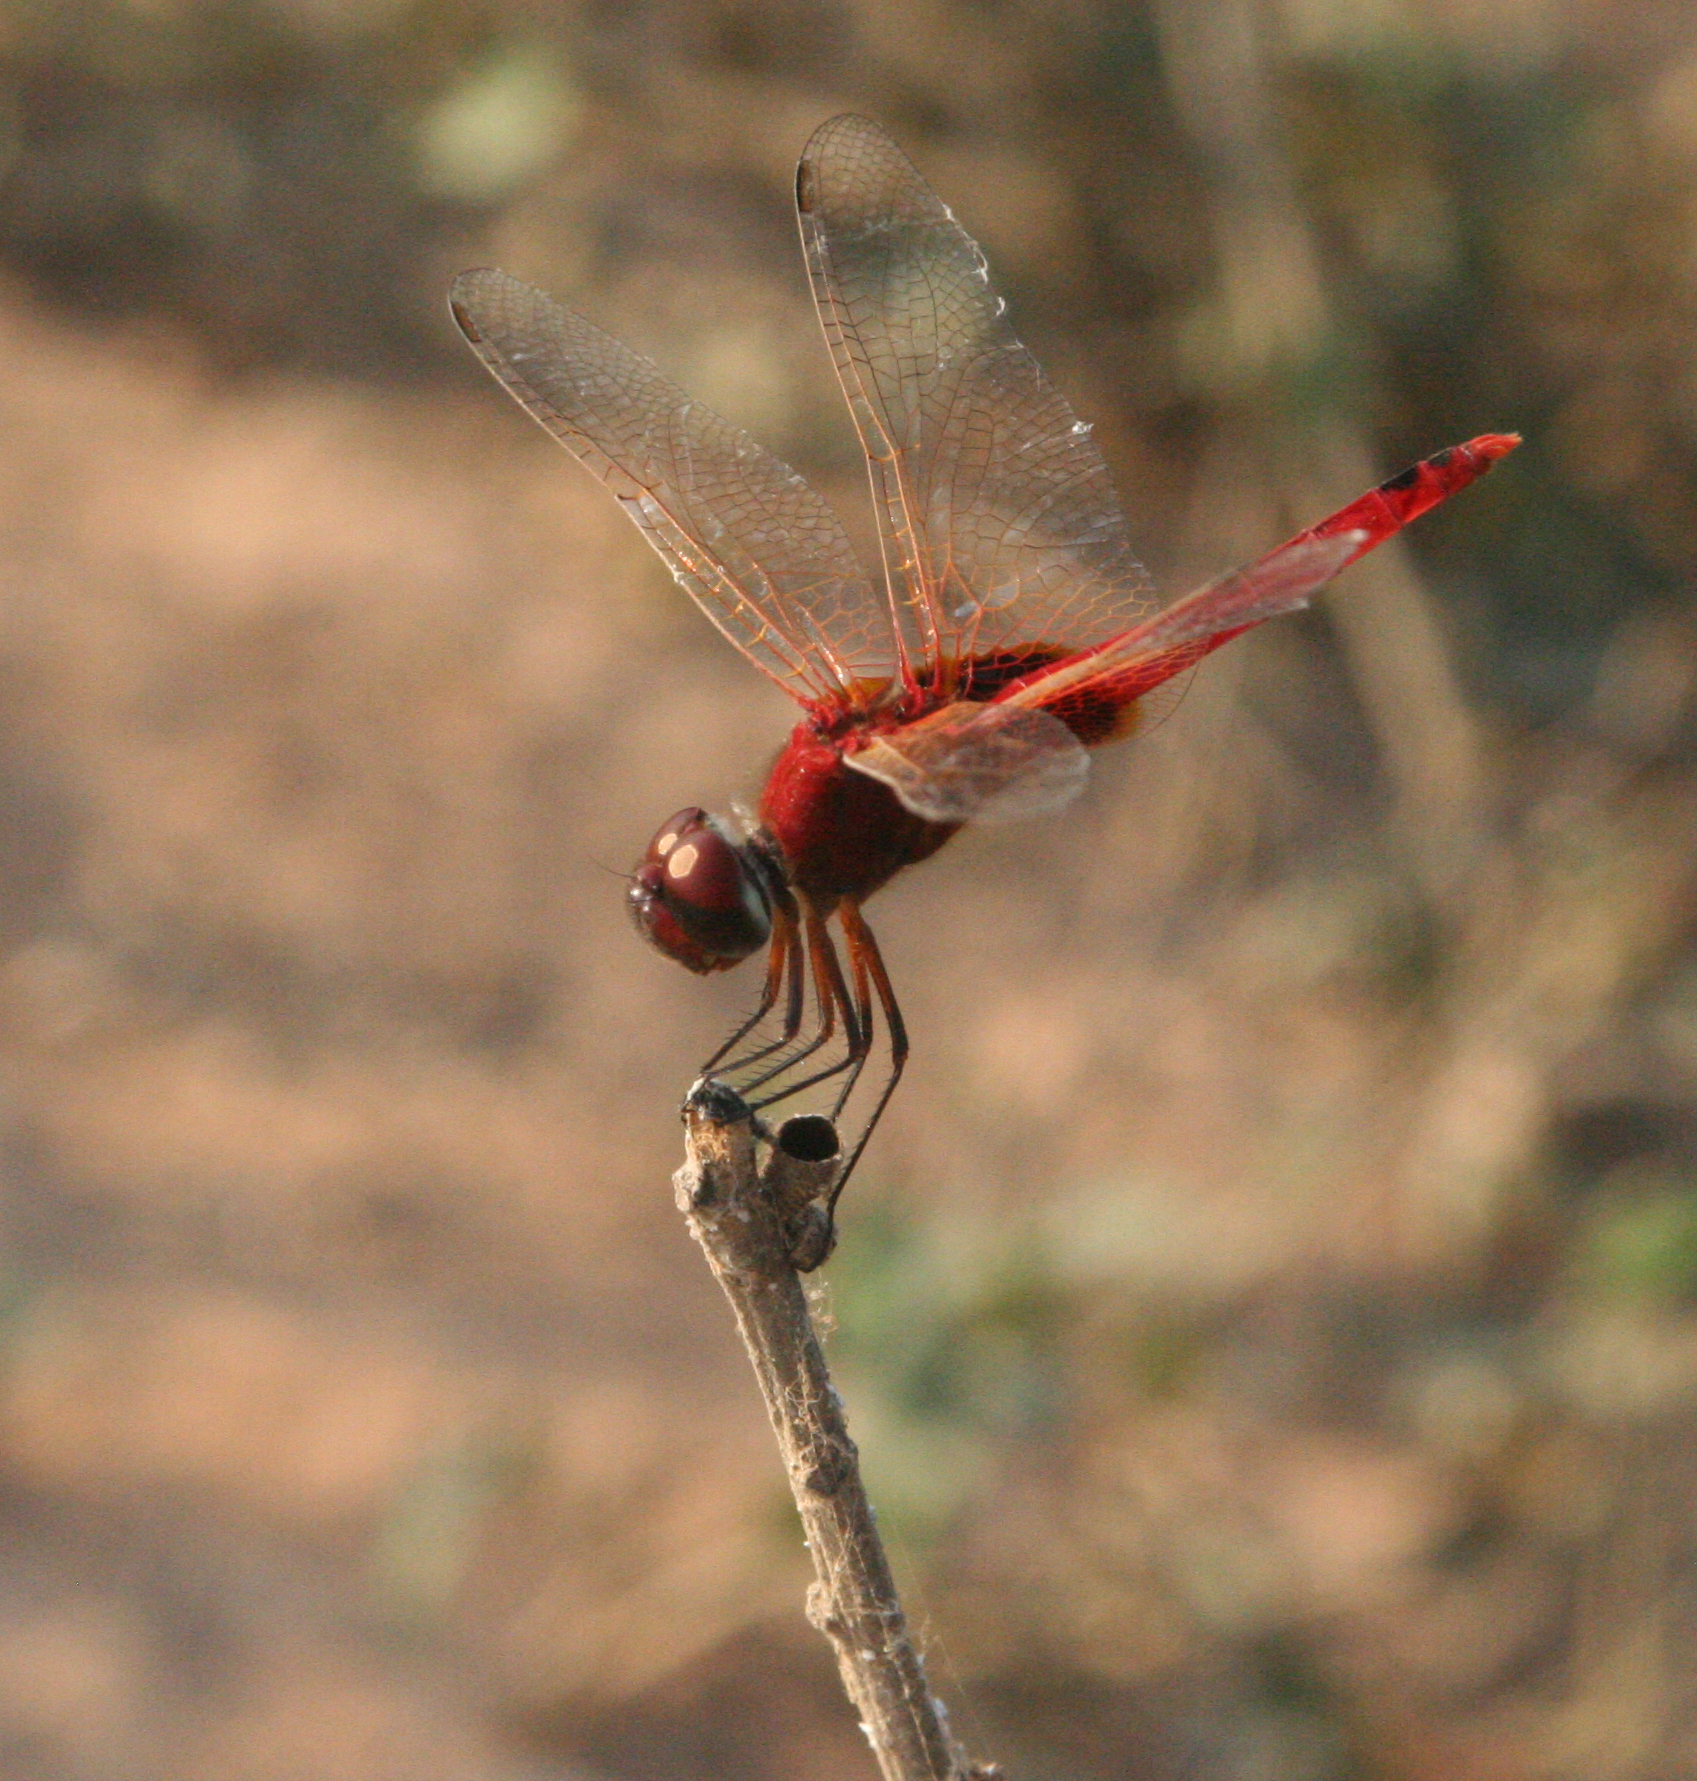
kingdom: Animalia
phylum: Arthropoda
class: Insecta
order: Odonata
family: Libellulidae
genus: Urothemis
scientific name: Urothemis signata
